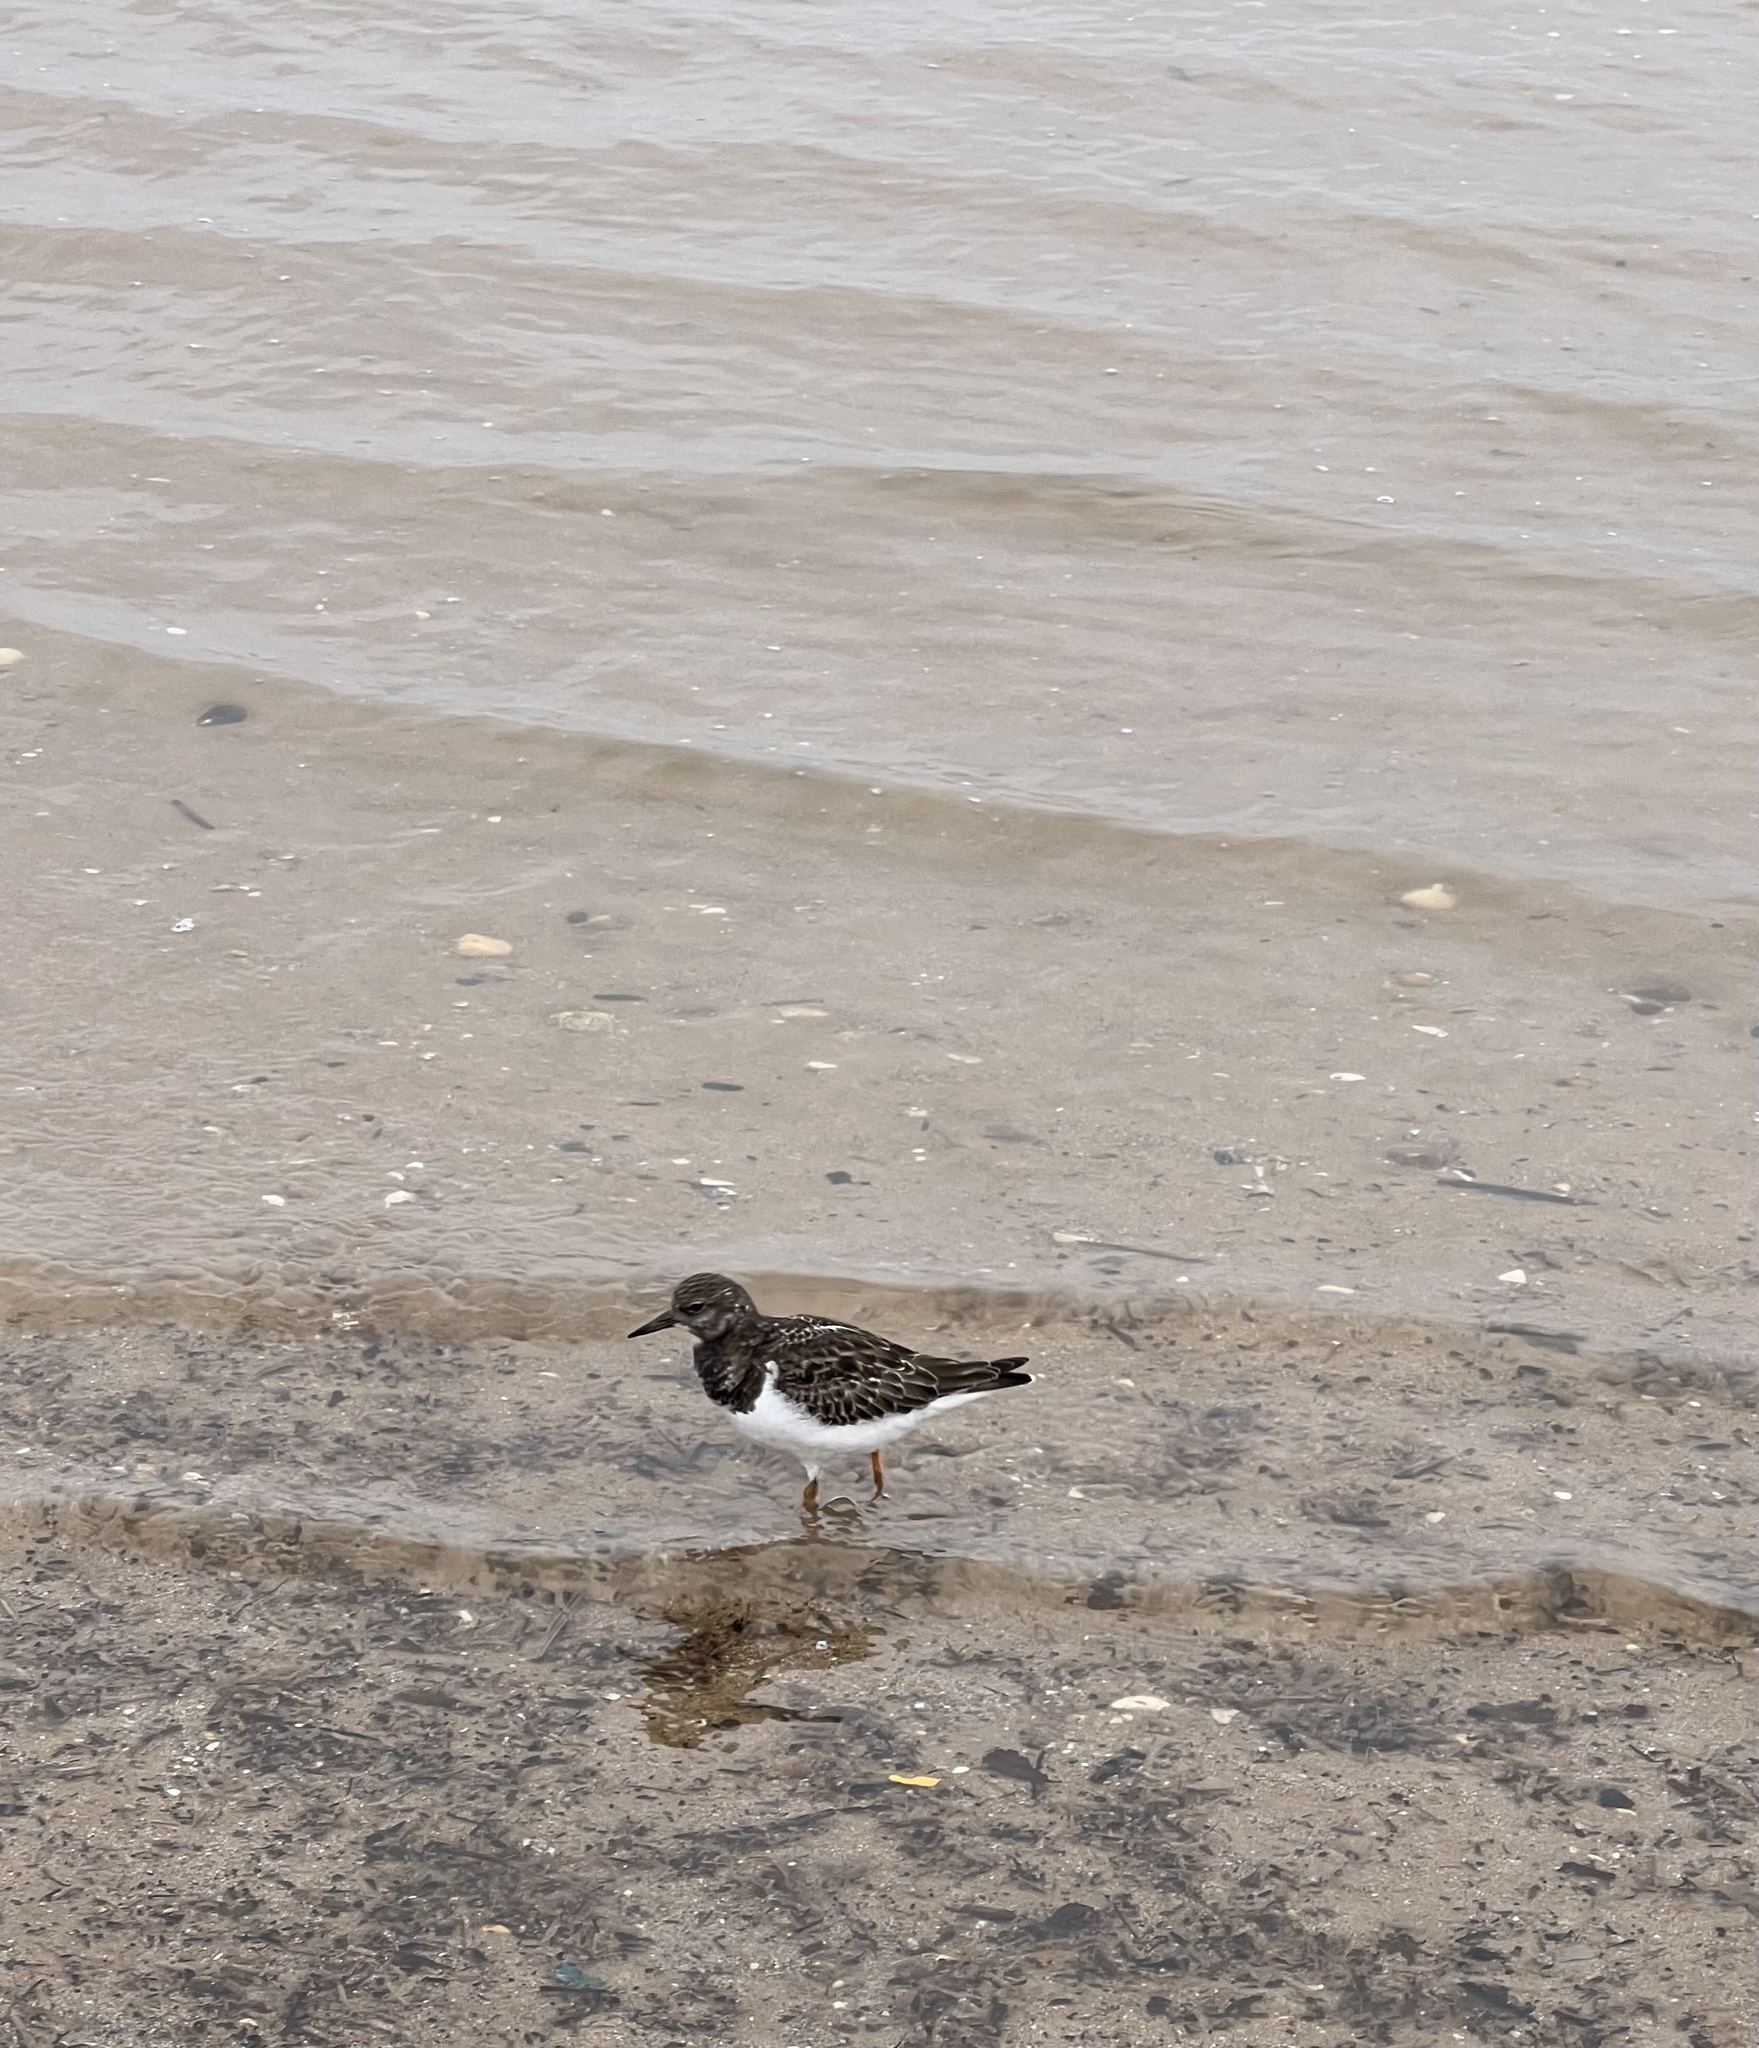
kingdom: Animalia
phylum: Chordata
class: Aves
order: Charadriiformes
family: Scolopacidae
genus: Arenaria
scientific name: Arenaria interpres
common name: Ruddy turnstone
